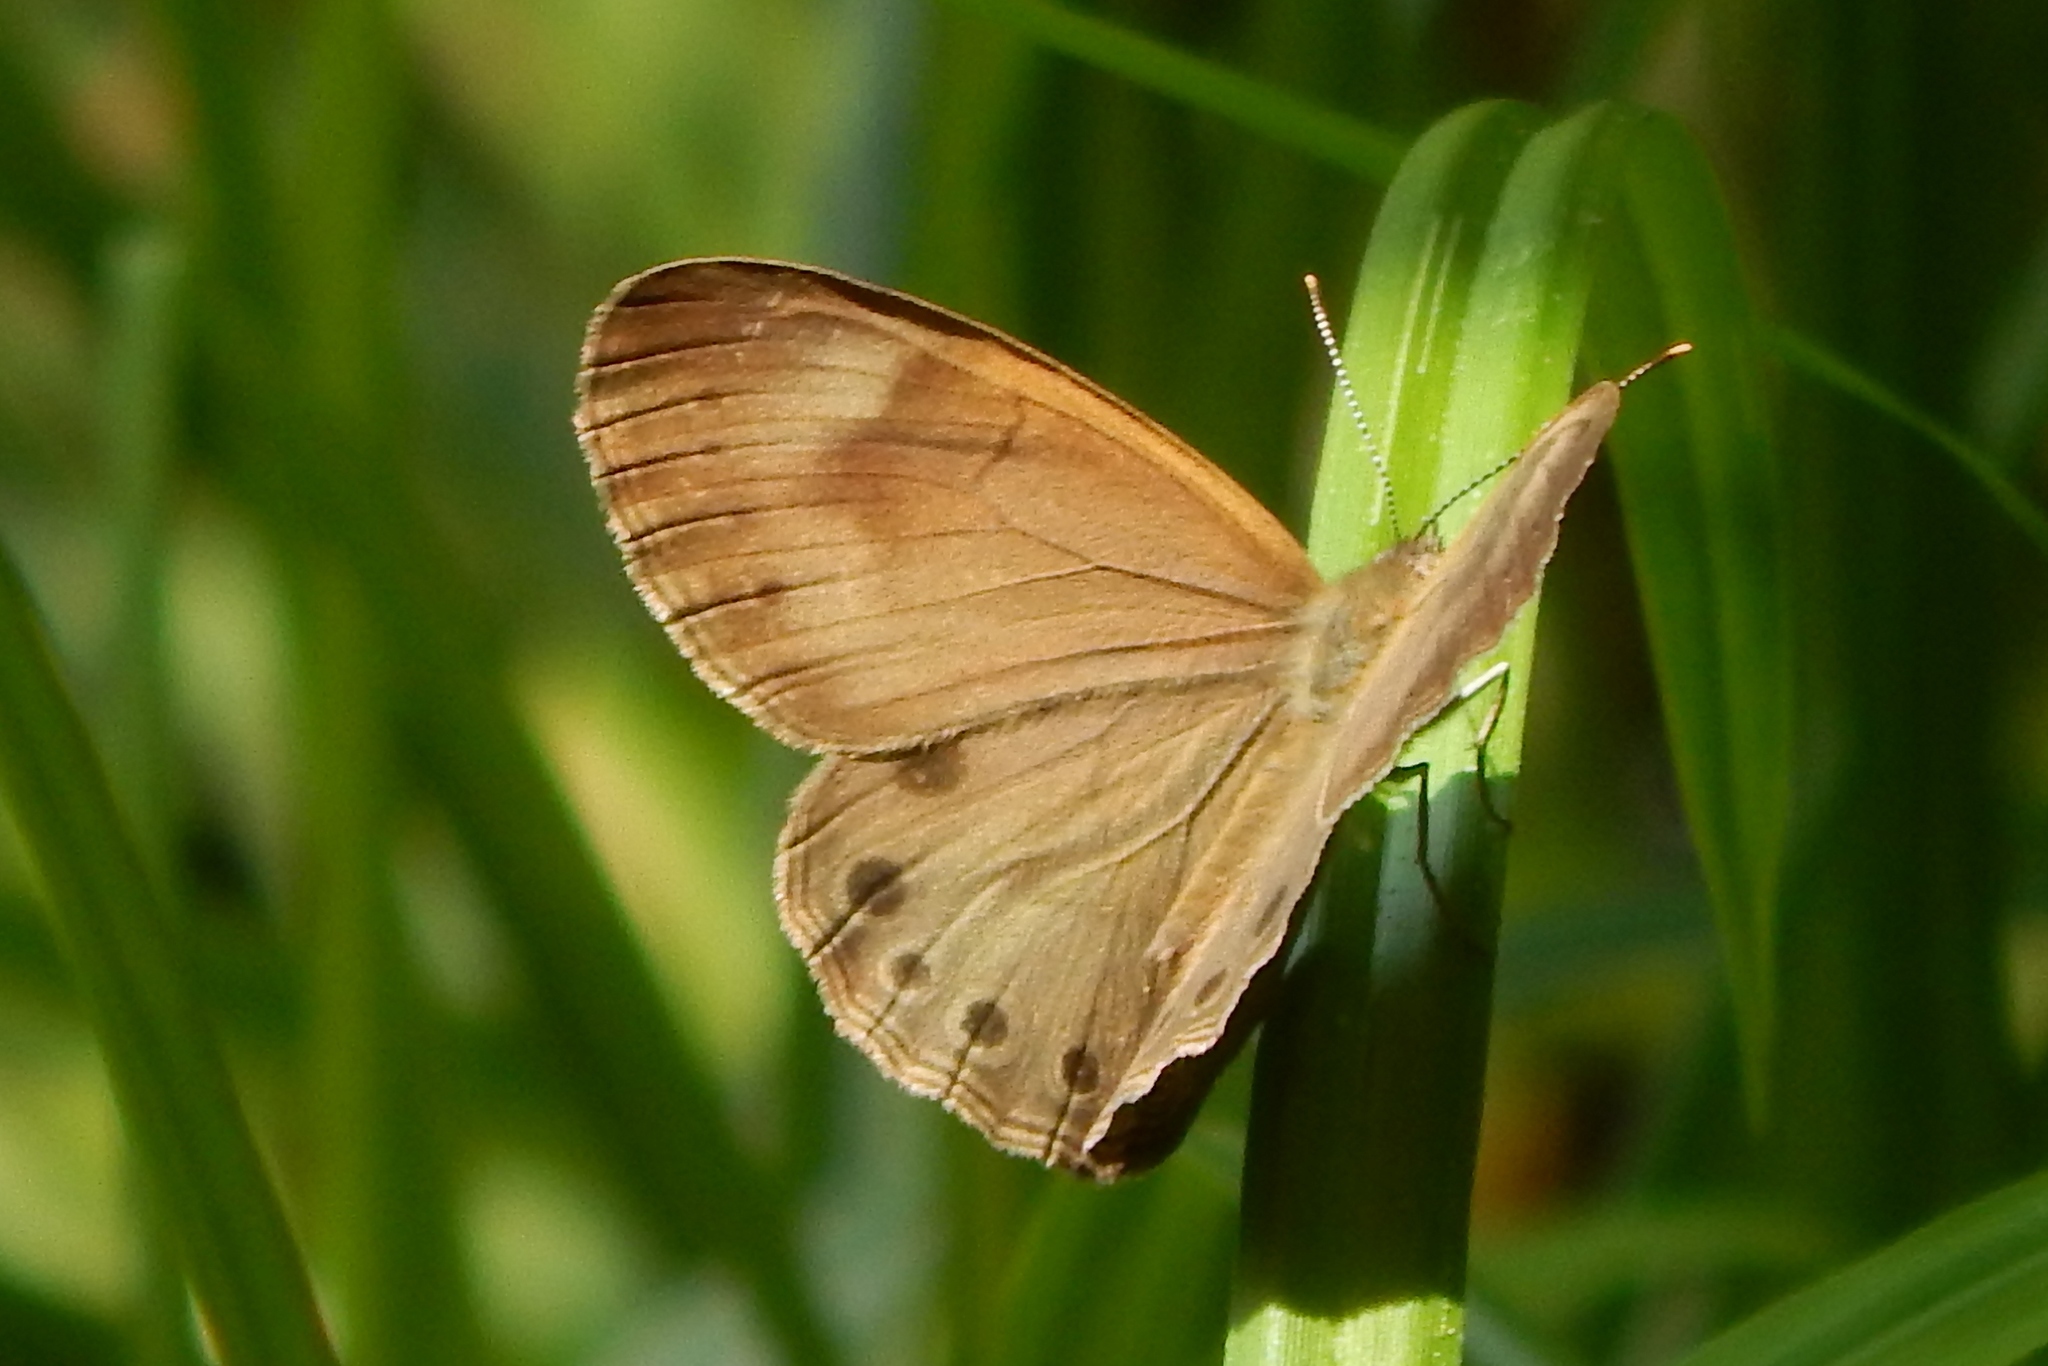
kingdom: Animalia
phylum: Arthropoda
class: Insecta
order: Lepidoptera
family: Nymphalidae
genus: Lethe
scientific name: Lethe eurydice
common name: Eyed brown
